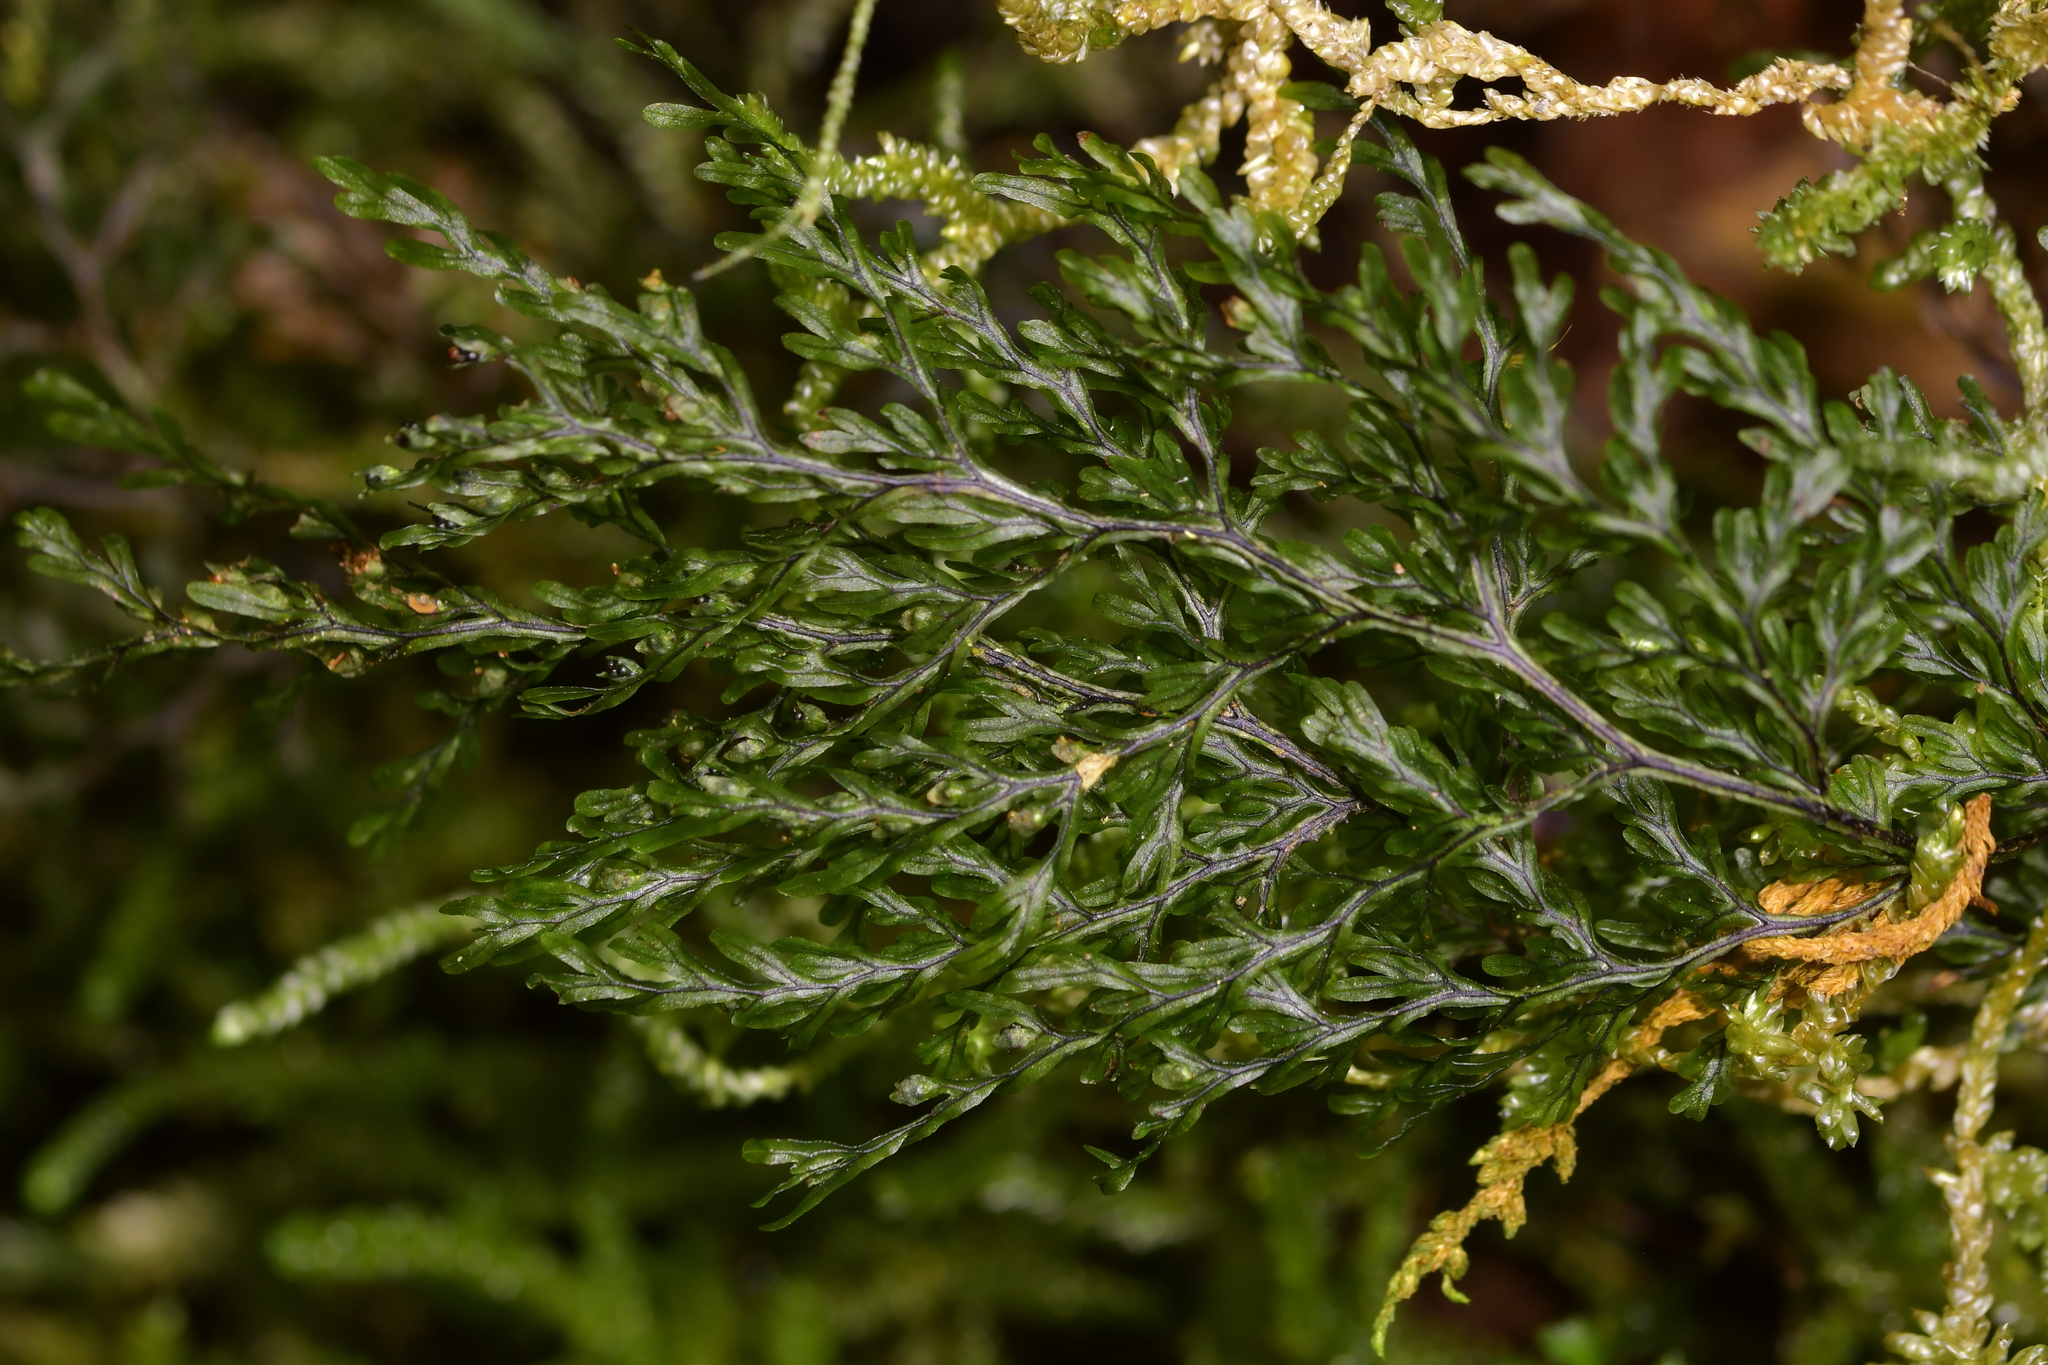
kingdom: Plantae
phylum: Tracheophyta
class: Polypodiopsida
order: Hymenophyllales
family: Hymenophyllaceae
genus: Hymenophyllum
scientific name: Hymenophyllum villosum
